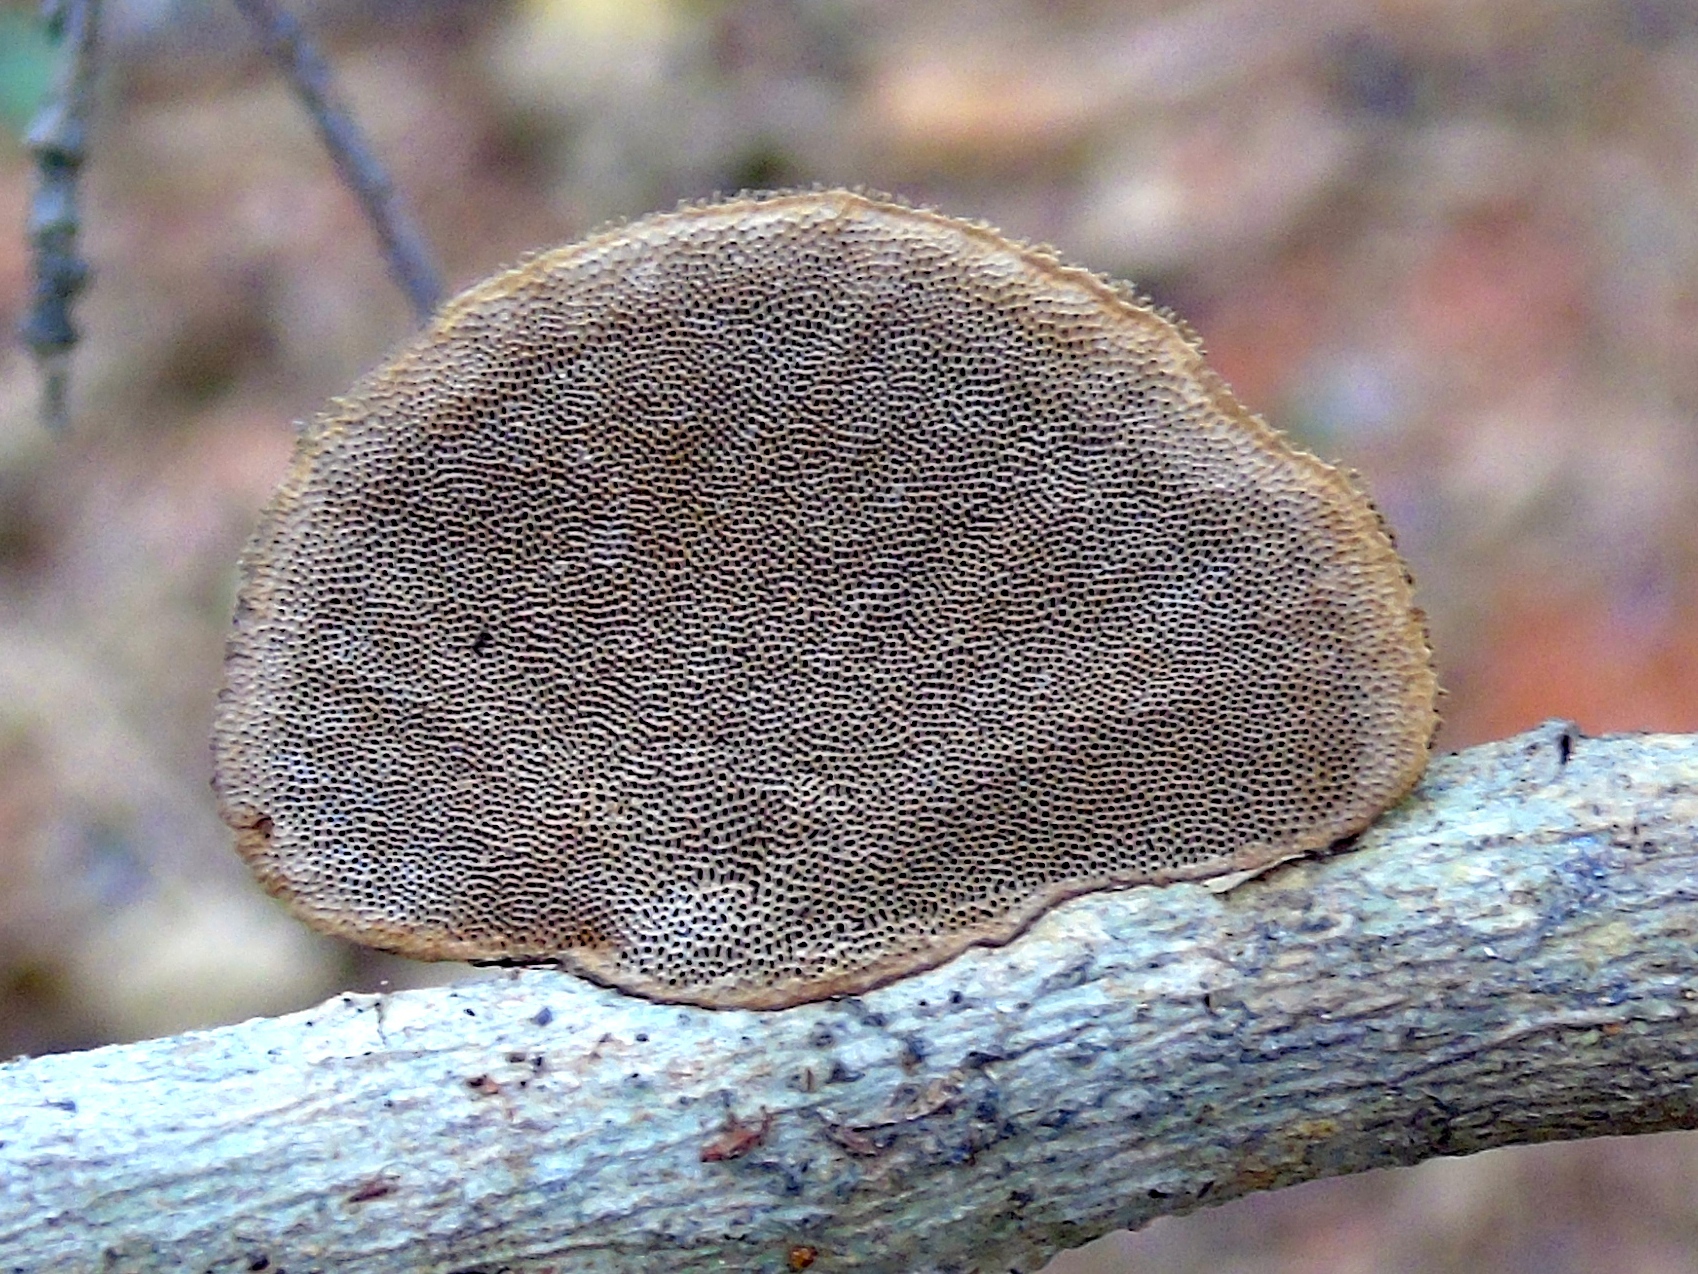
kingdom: Fungi
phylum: Basidiomycota
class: Agaricomycetes
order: Polyporales
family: Polyporaceae
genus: Hexagonia
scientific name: Hexagonia
